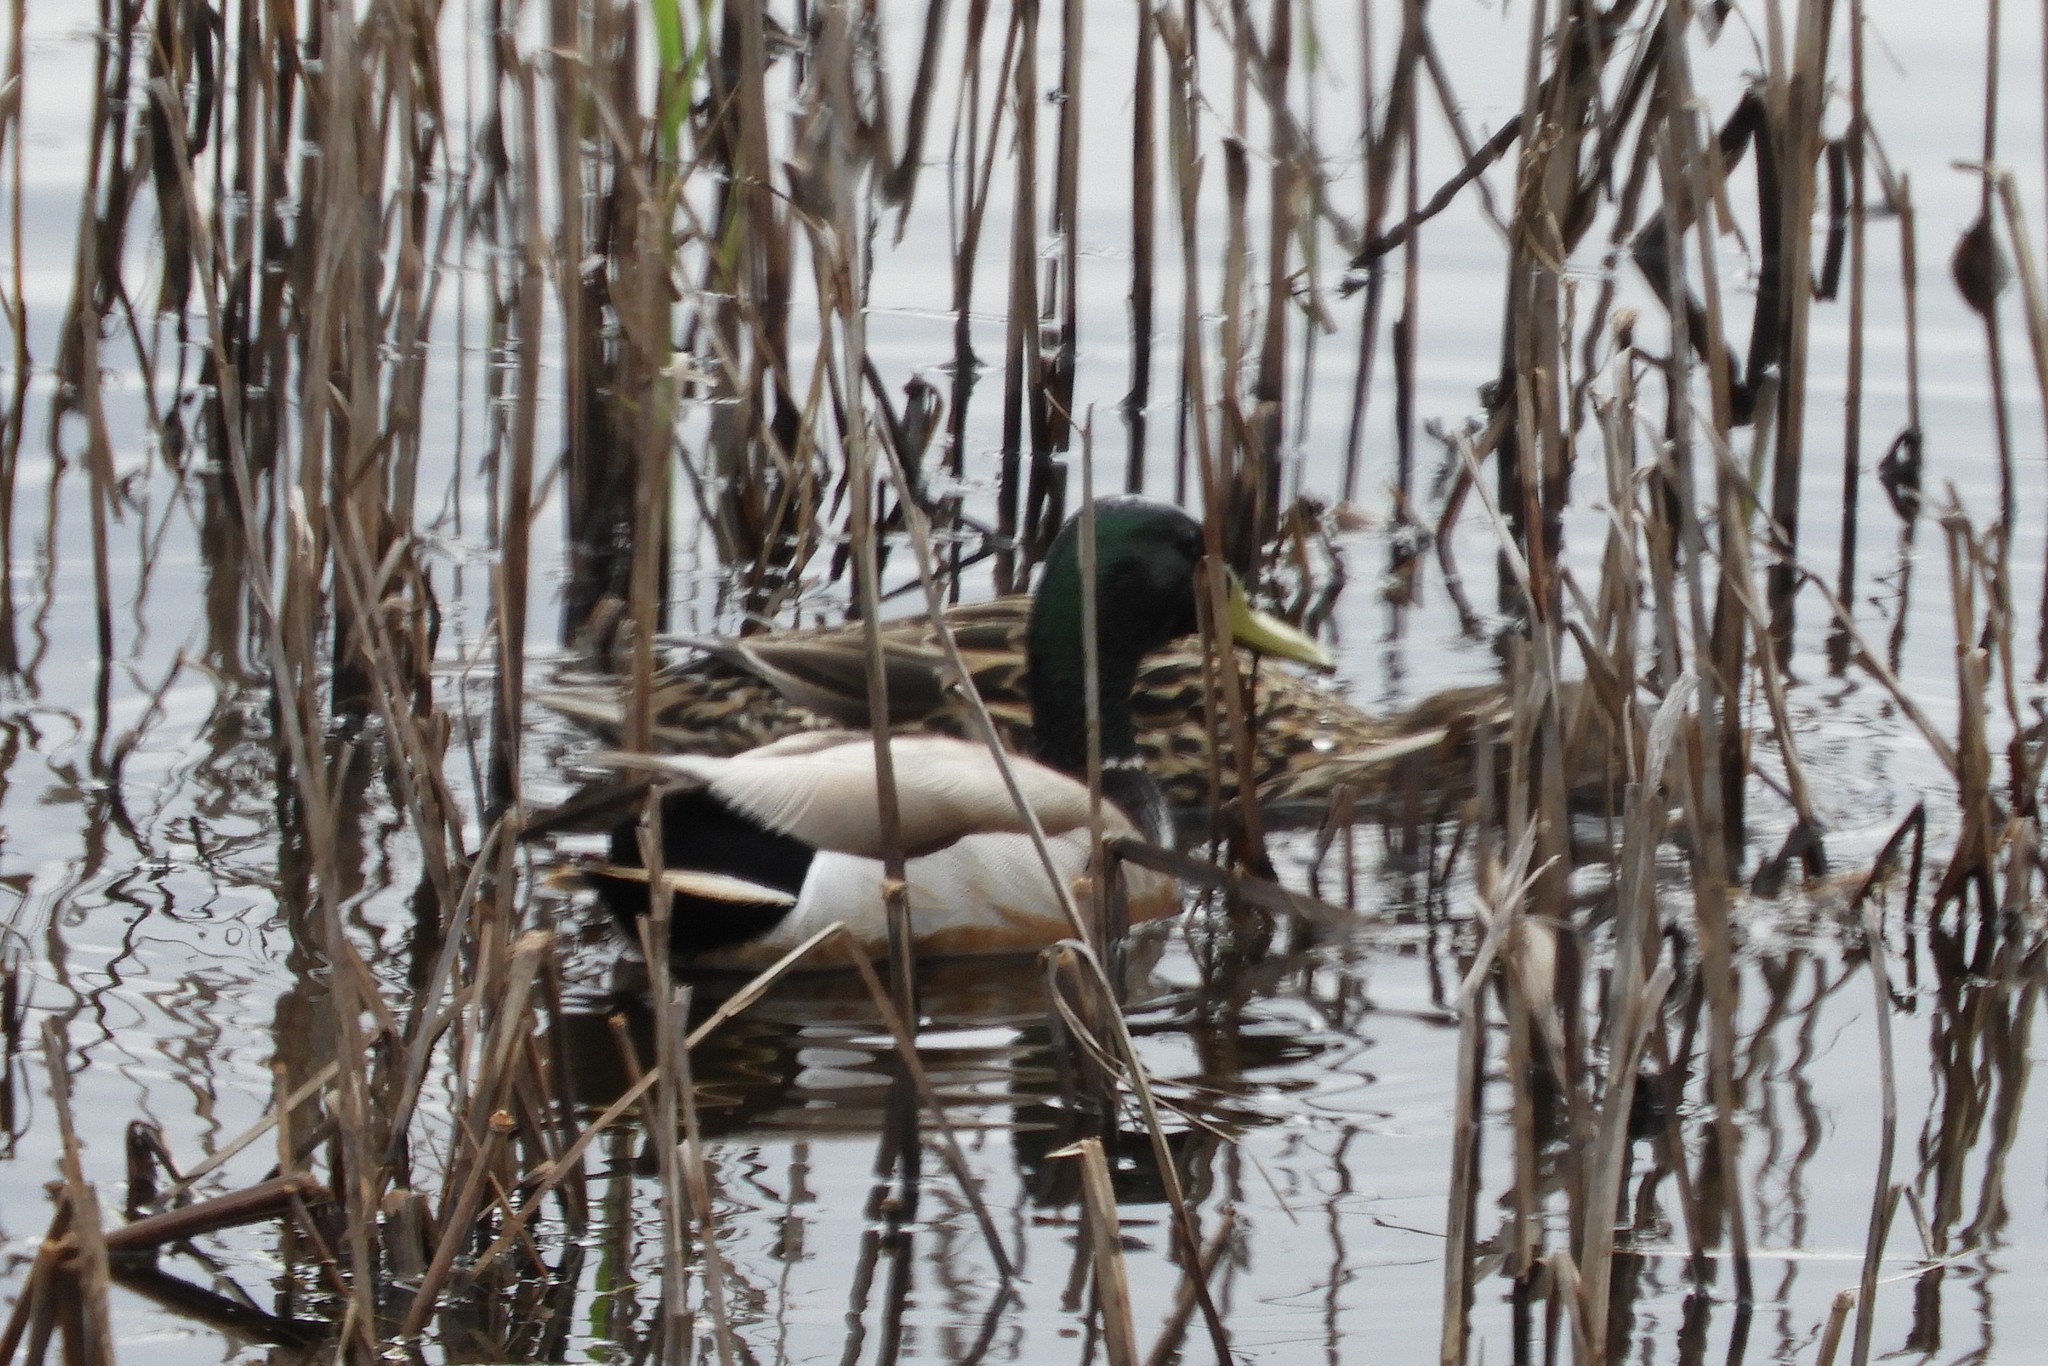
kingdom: Animalia
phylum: Chordata
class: Aves
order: Anseriformes
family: Anatidae
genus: Anas
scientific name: Anas platyrhynchos
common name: Mallard
